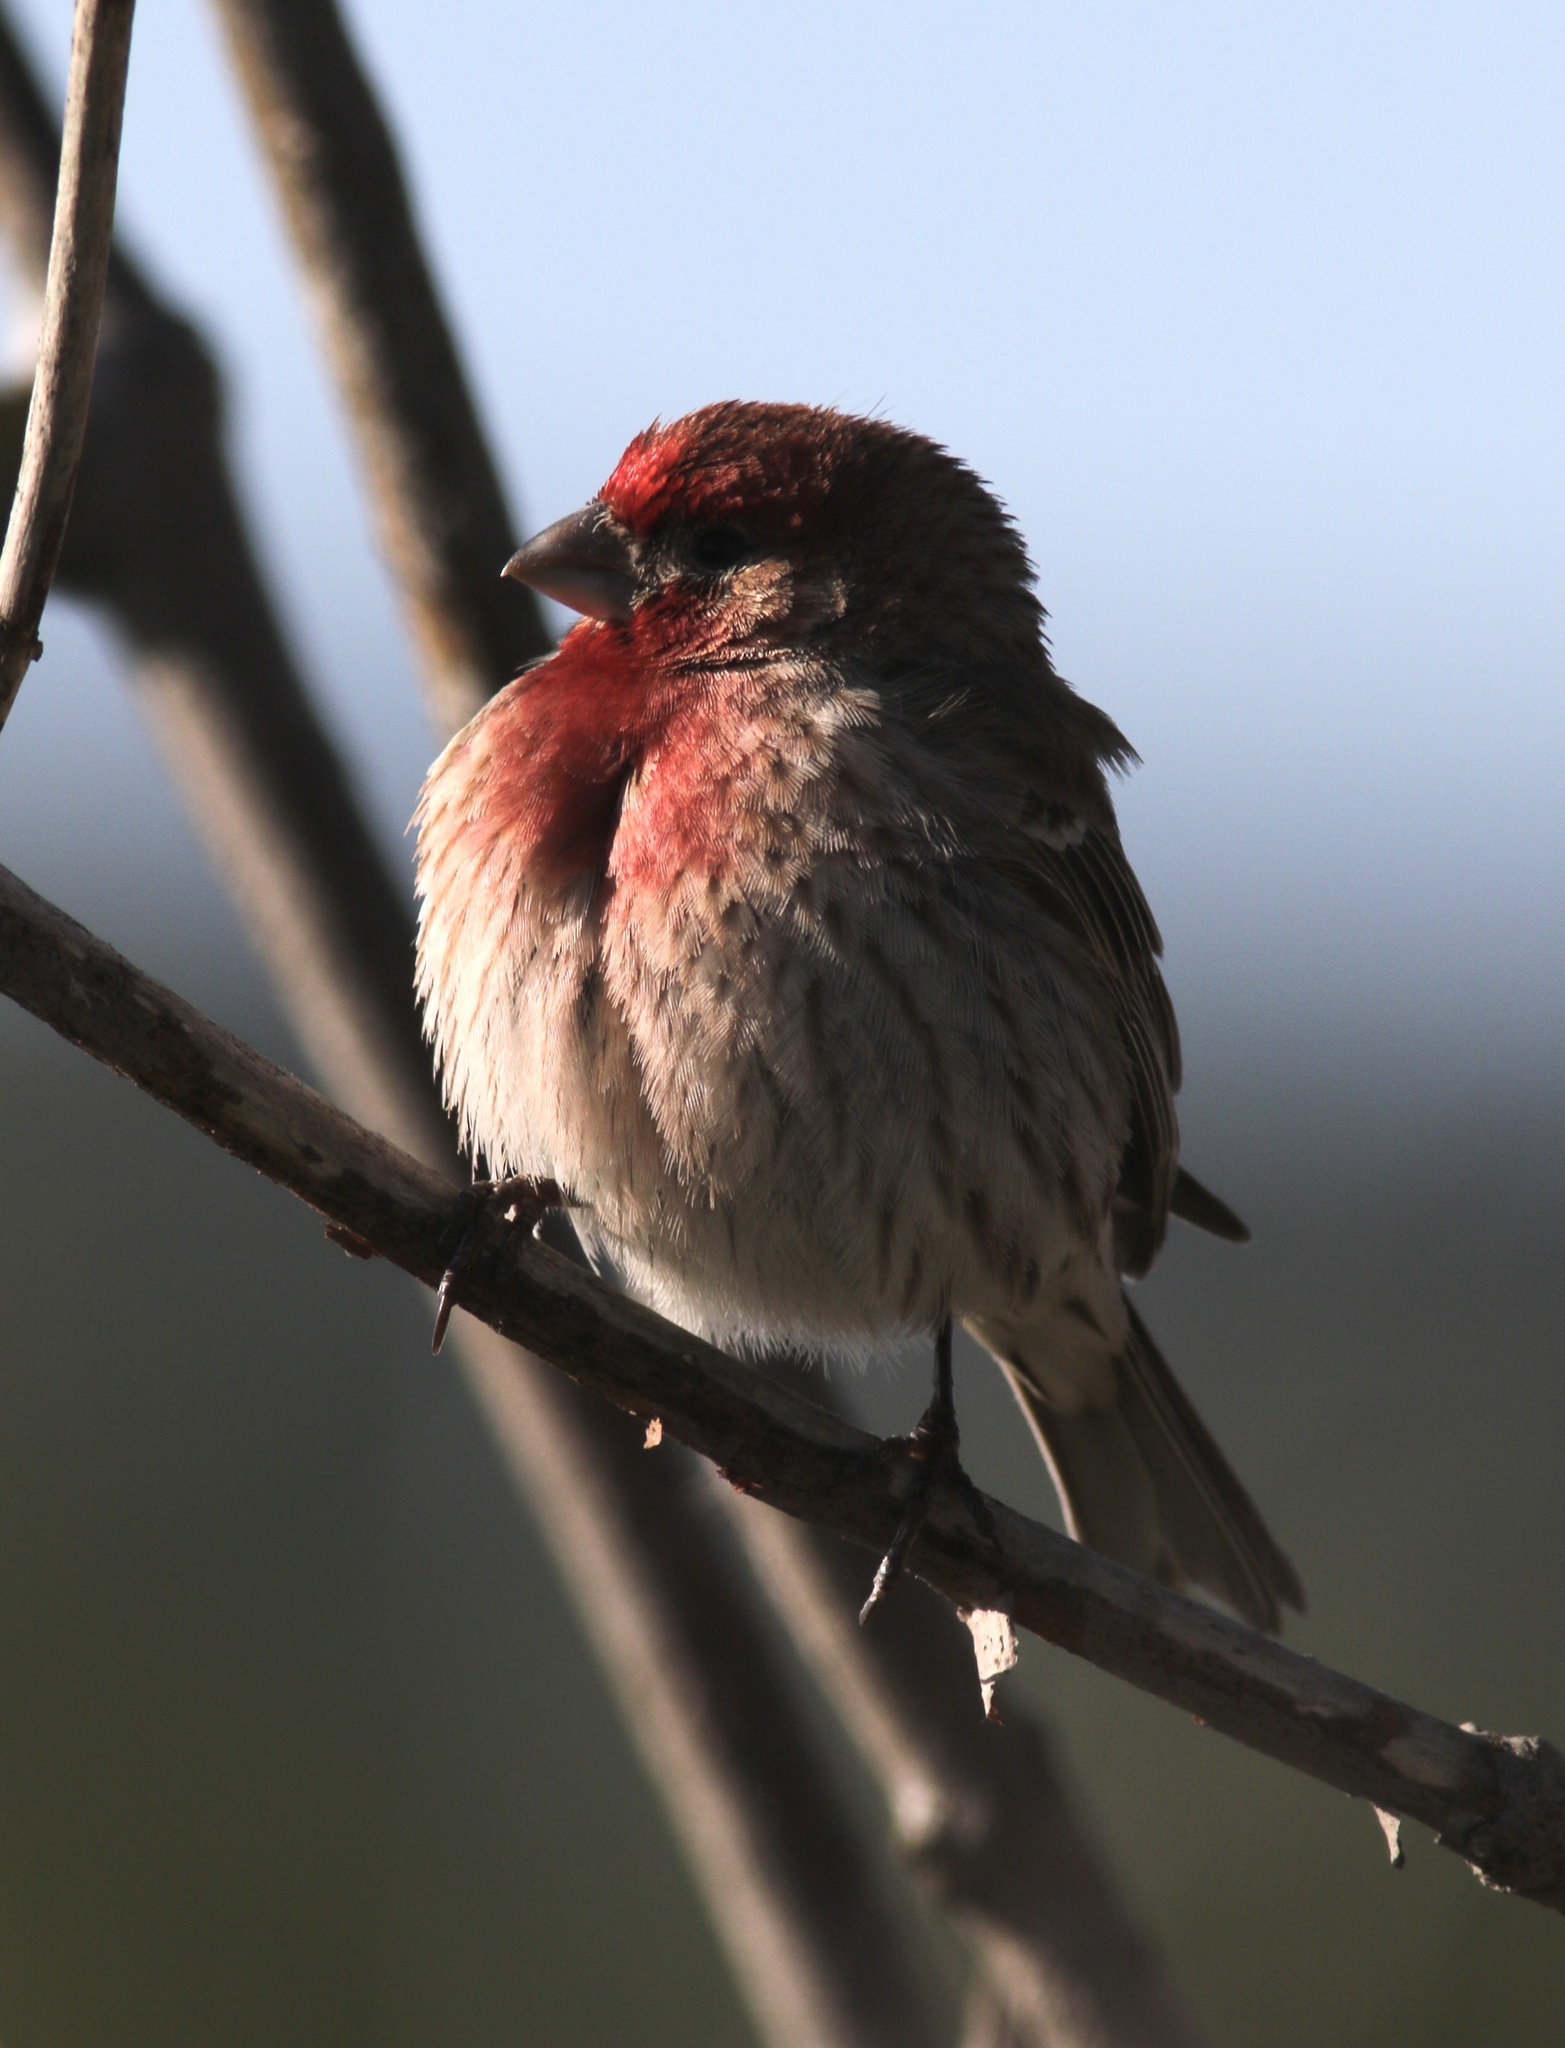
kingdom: Animalia
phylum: Chordata
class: Aves
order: Passeriformes
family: Fringillidae
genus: Haemorhous
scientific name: Haemorhous mexicanus
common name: House finch
